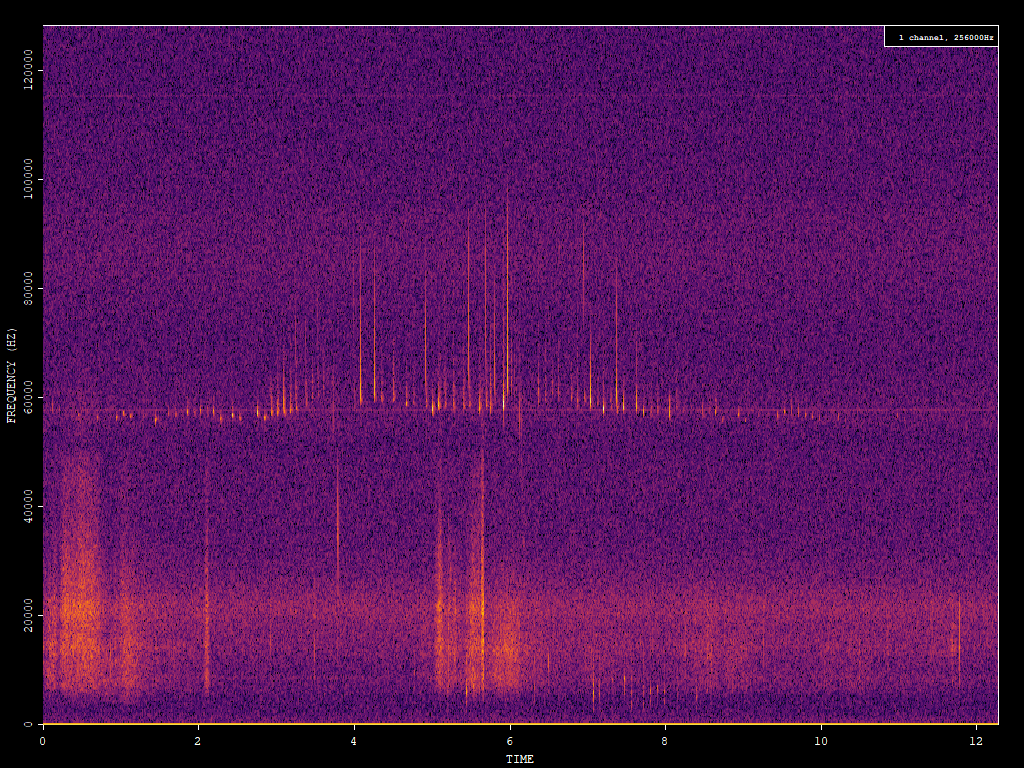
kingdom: Animalia
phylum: Chordata
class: Mammalia
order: Chiroptera
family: Vespertilionidae
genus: Pipistrellus
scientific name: Pipistrellus pygmaeus
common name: Soprano pipistrelle
